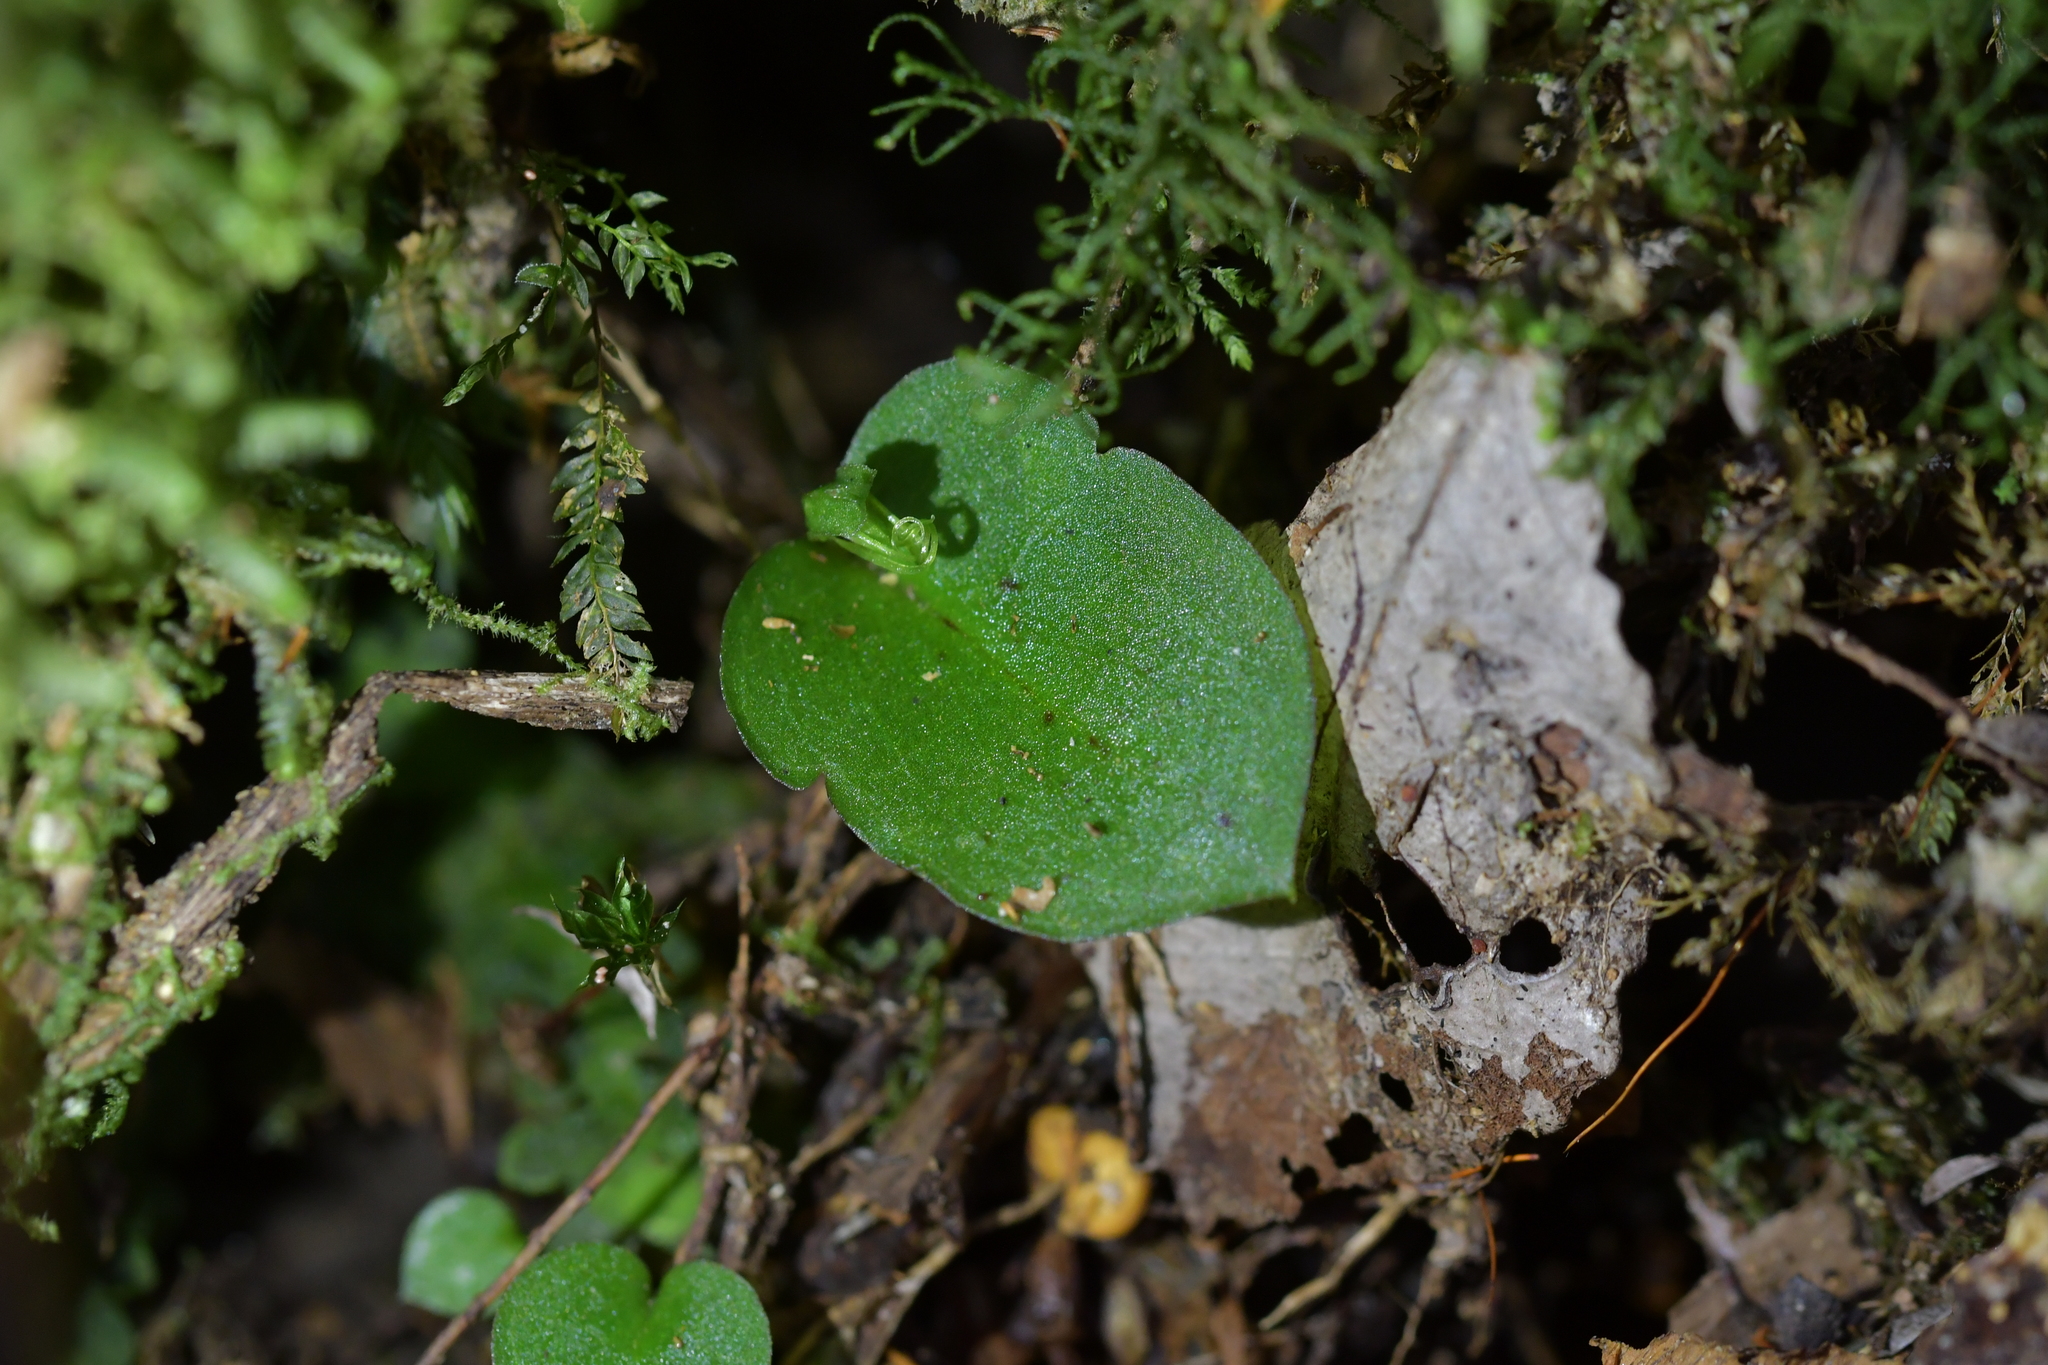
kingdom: Plantae
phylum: Tracheophyta
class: Liliopsida
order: Asparagales
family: Orchidaceae
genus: Corybas
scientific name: Corybas oblongus
